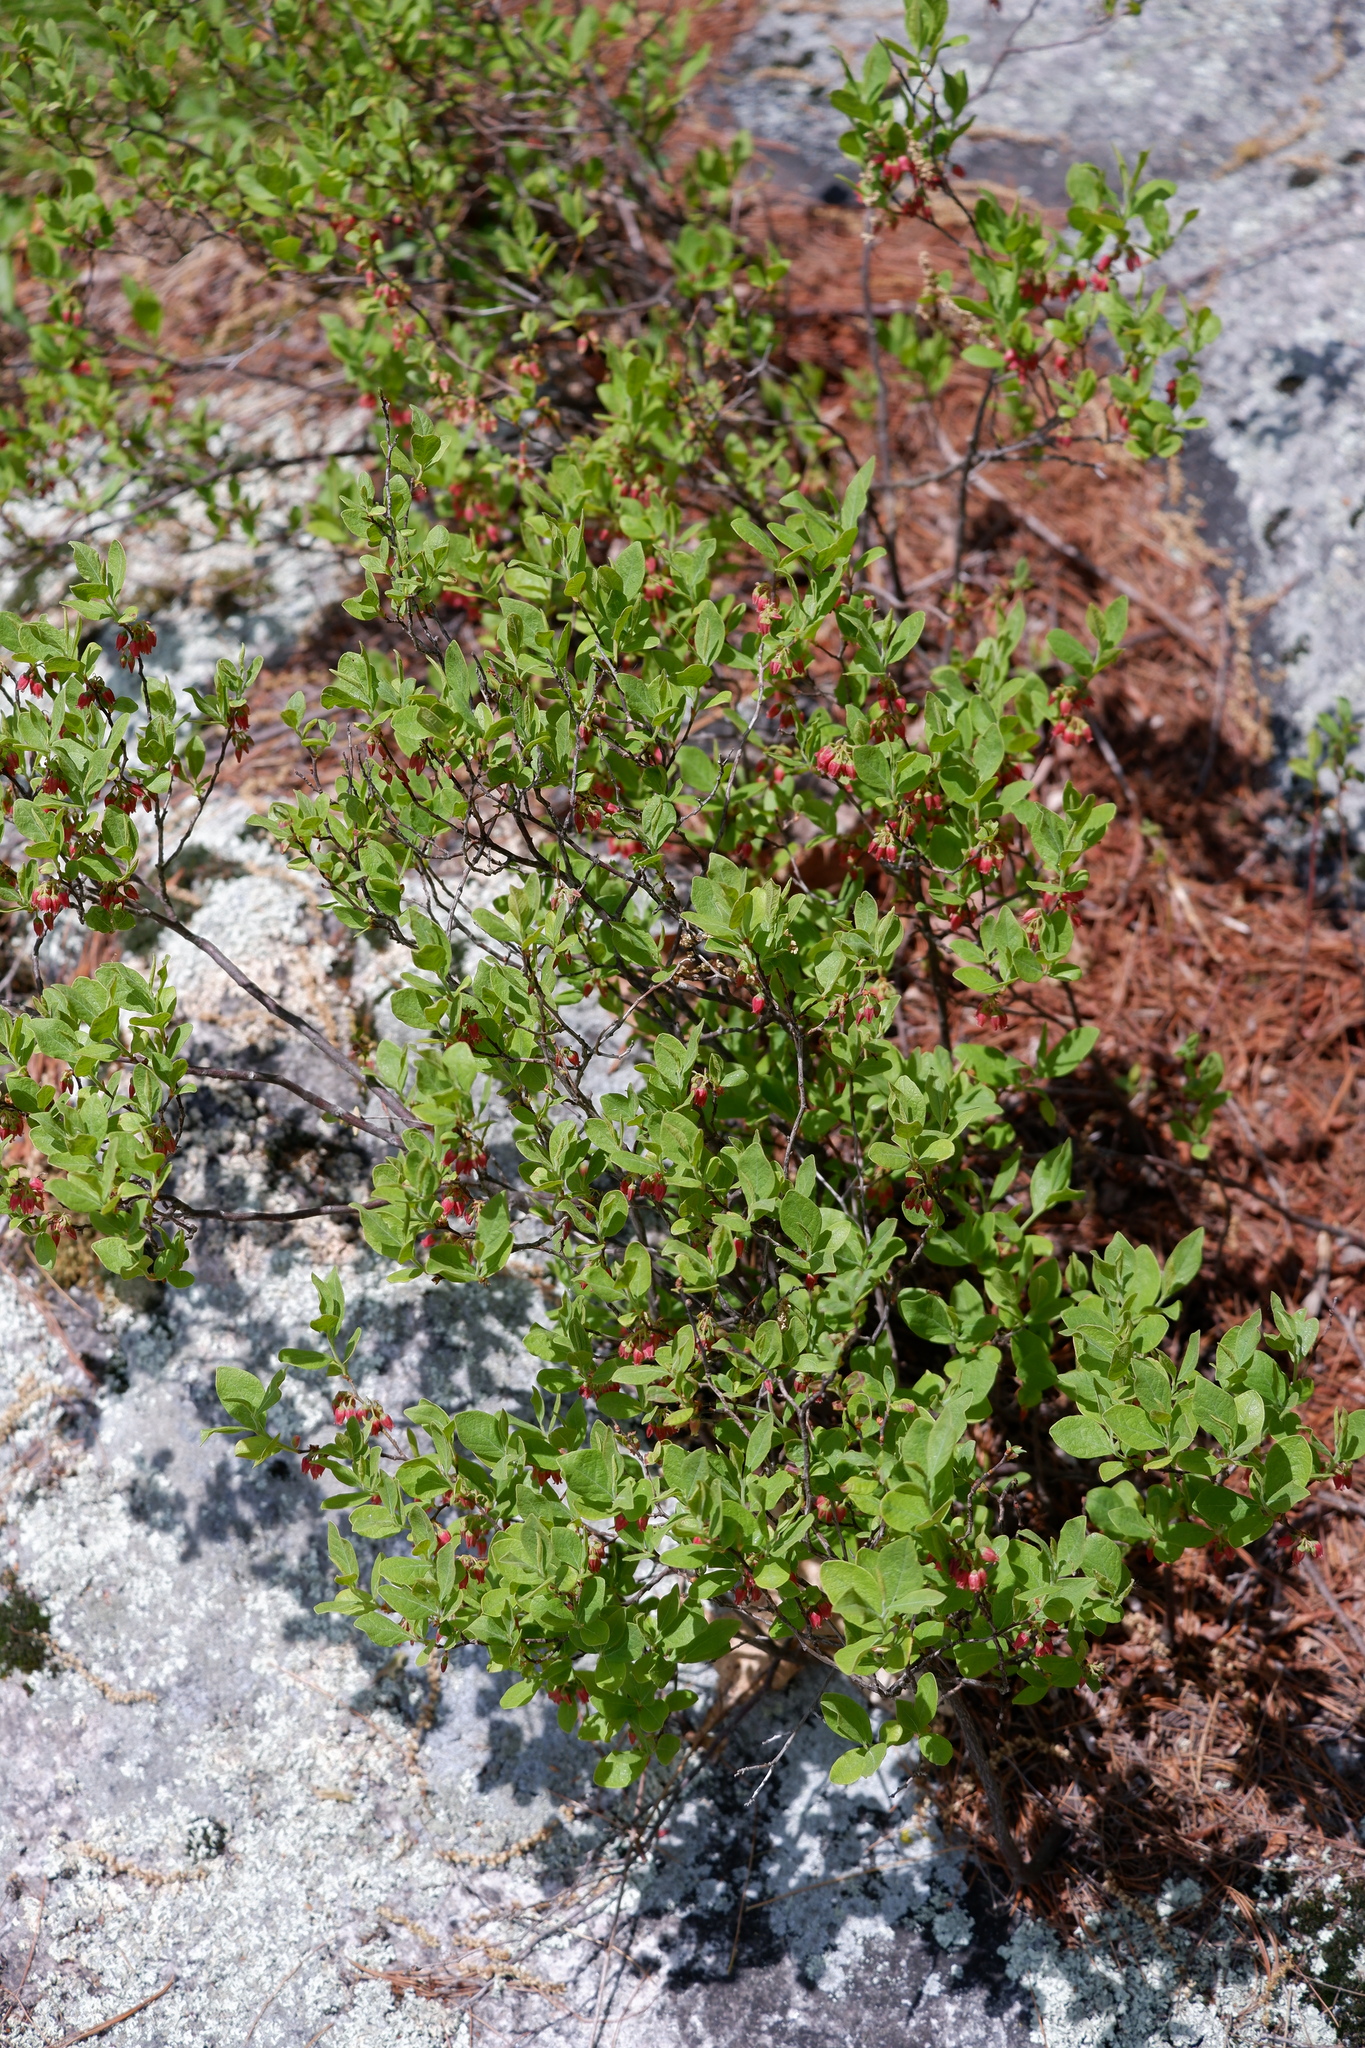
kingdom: Plantae
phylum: Tracheophyta
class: Magnoliopsida
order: Ericales
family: Ericaceae
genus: Gaylussacia
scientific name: Gaylussacia baccata
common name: Black huckleberry
